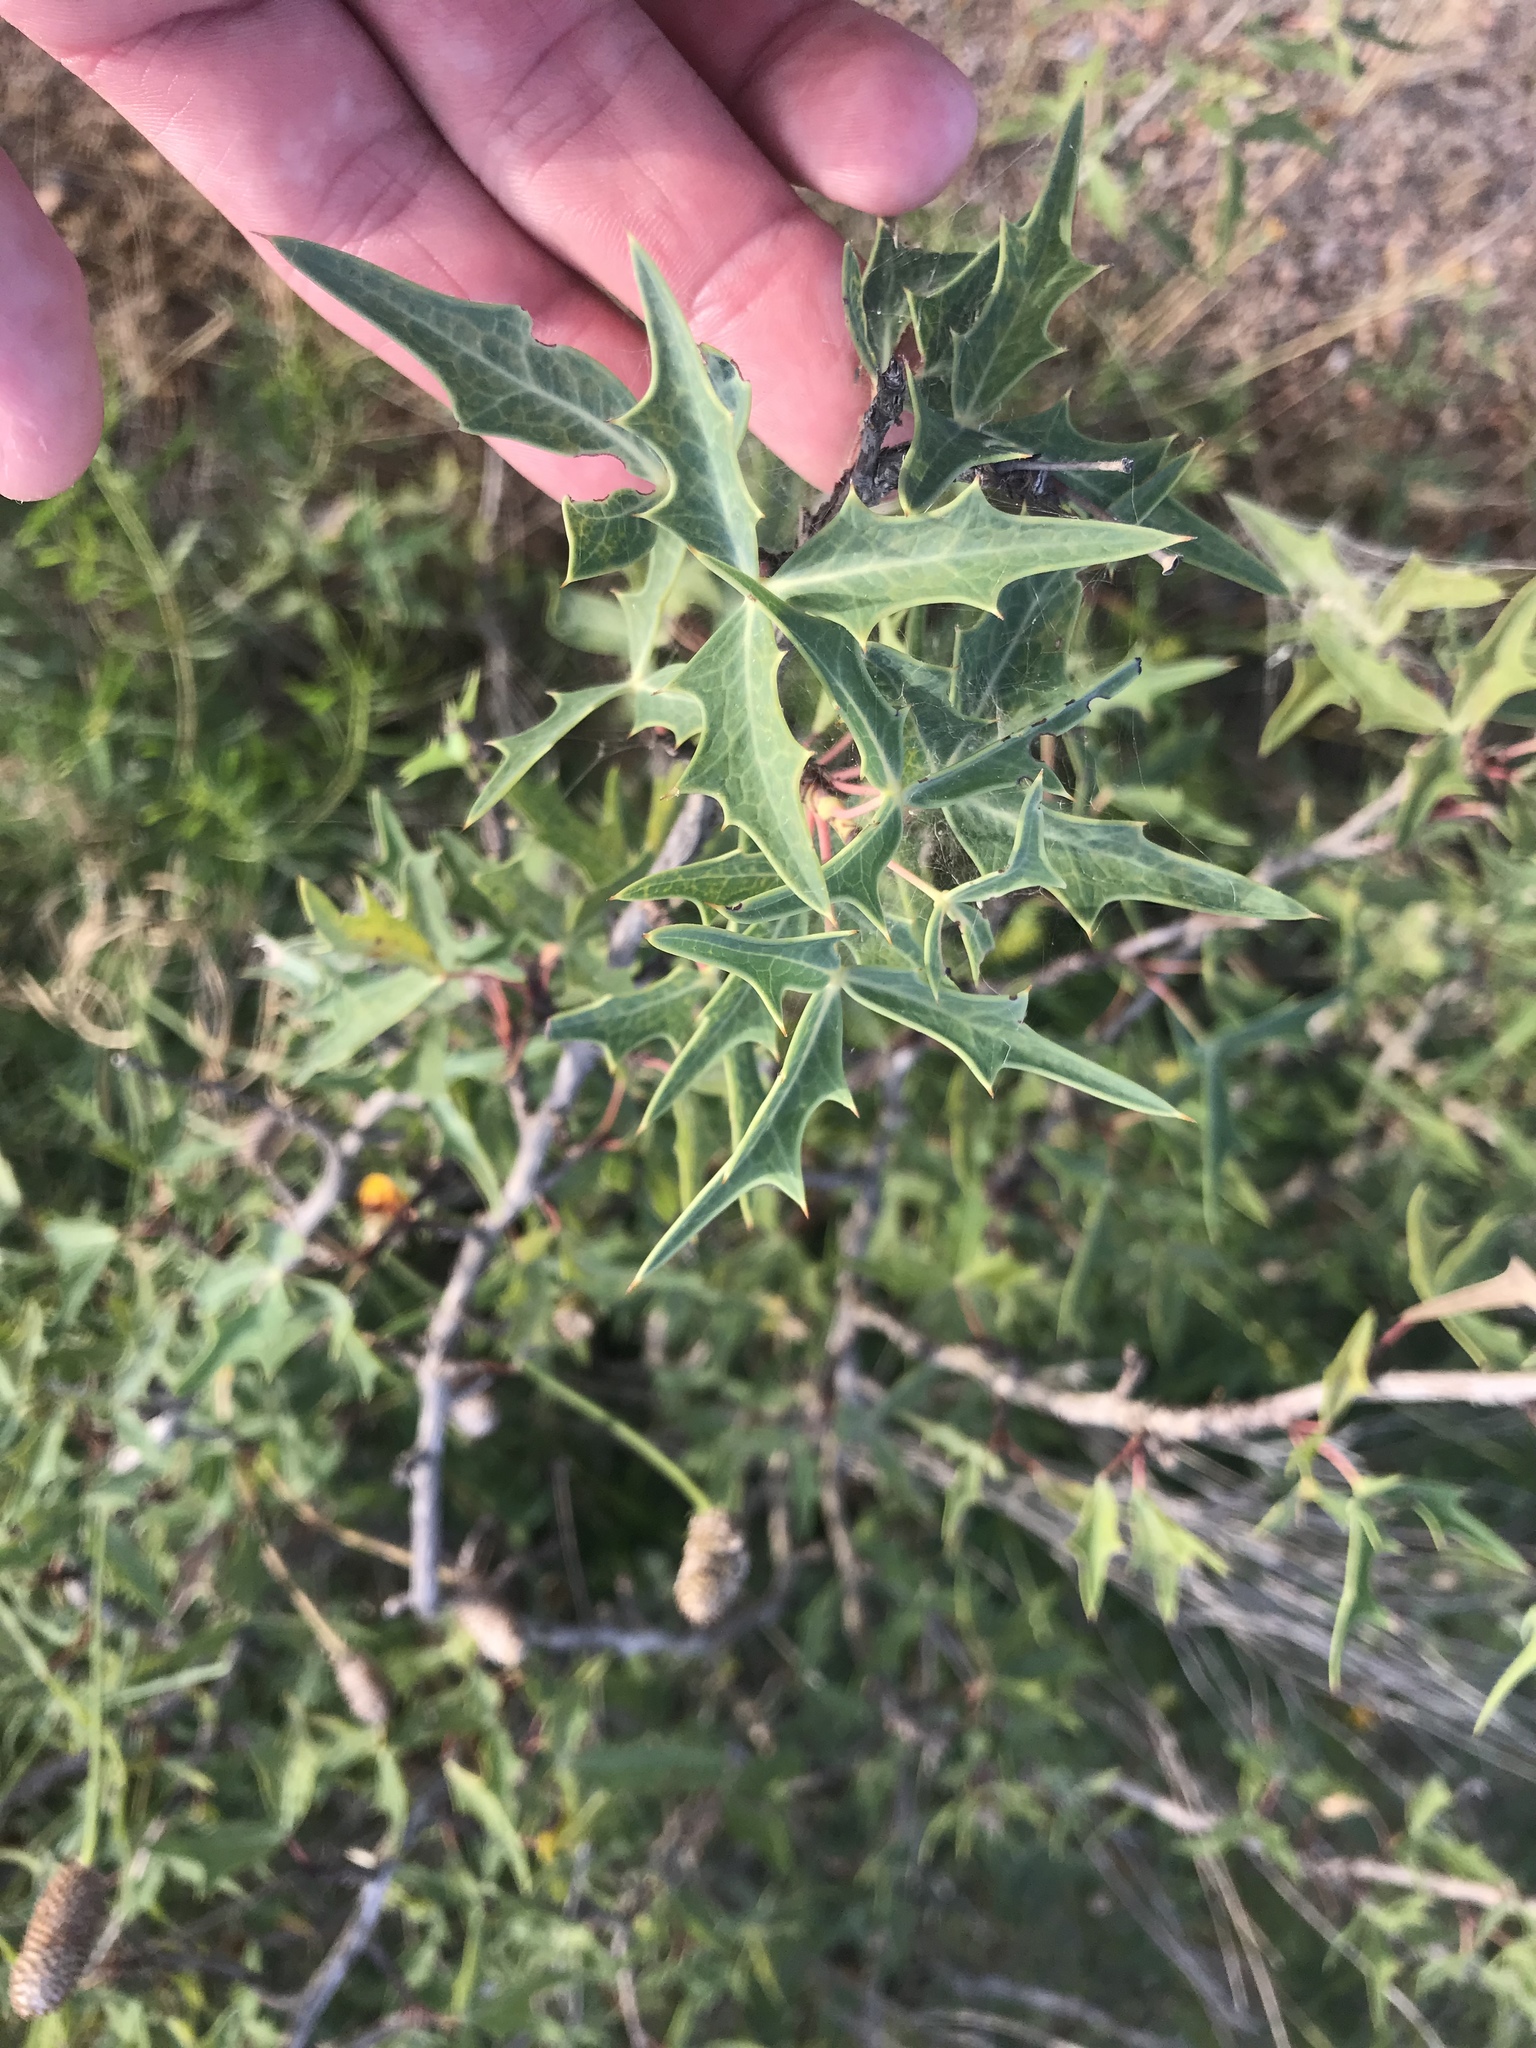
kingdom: Plantae
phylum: Tracheophyta
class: Magnoliopsida
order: Ranunculales
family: Berberidaceae
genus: Alloberberis
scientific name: Alloberberis trifoliolata
